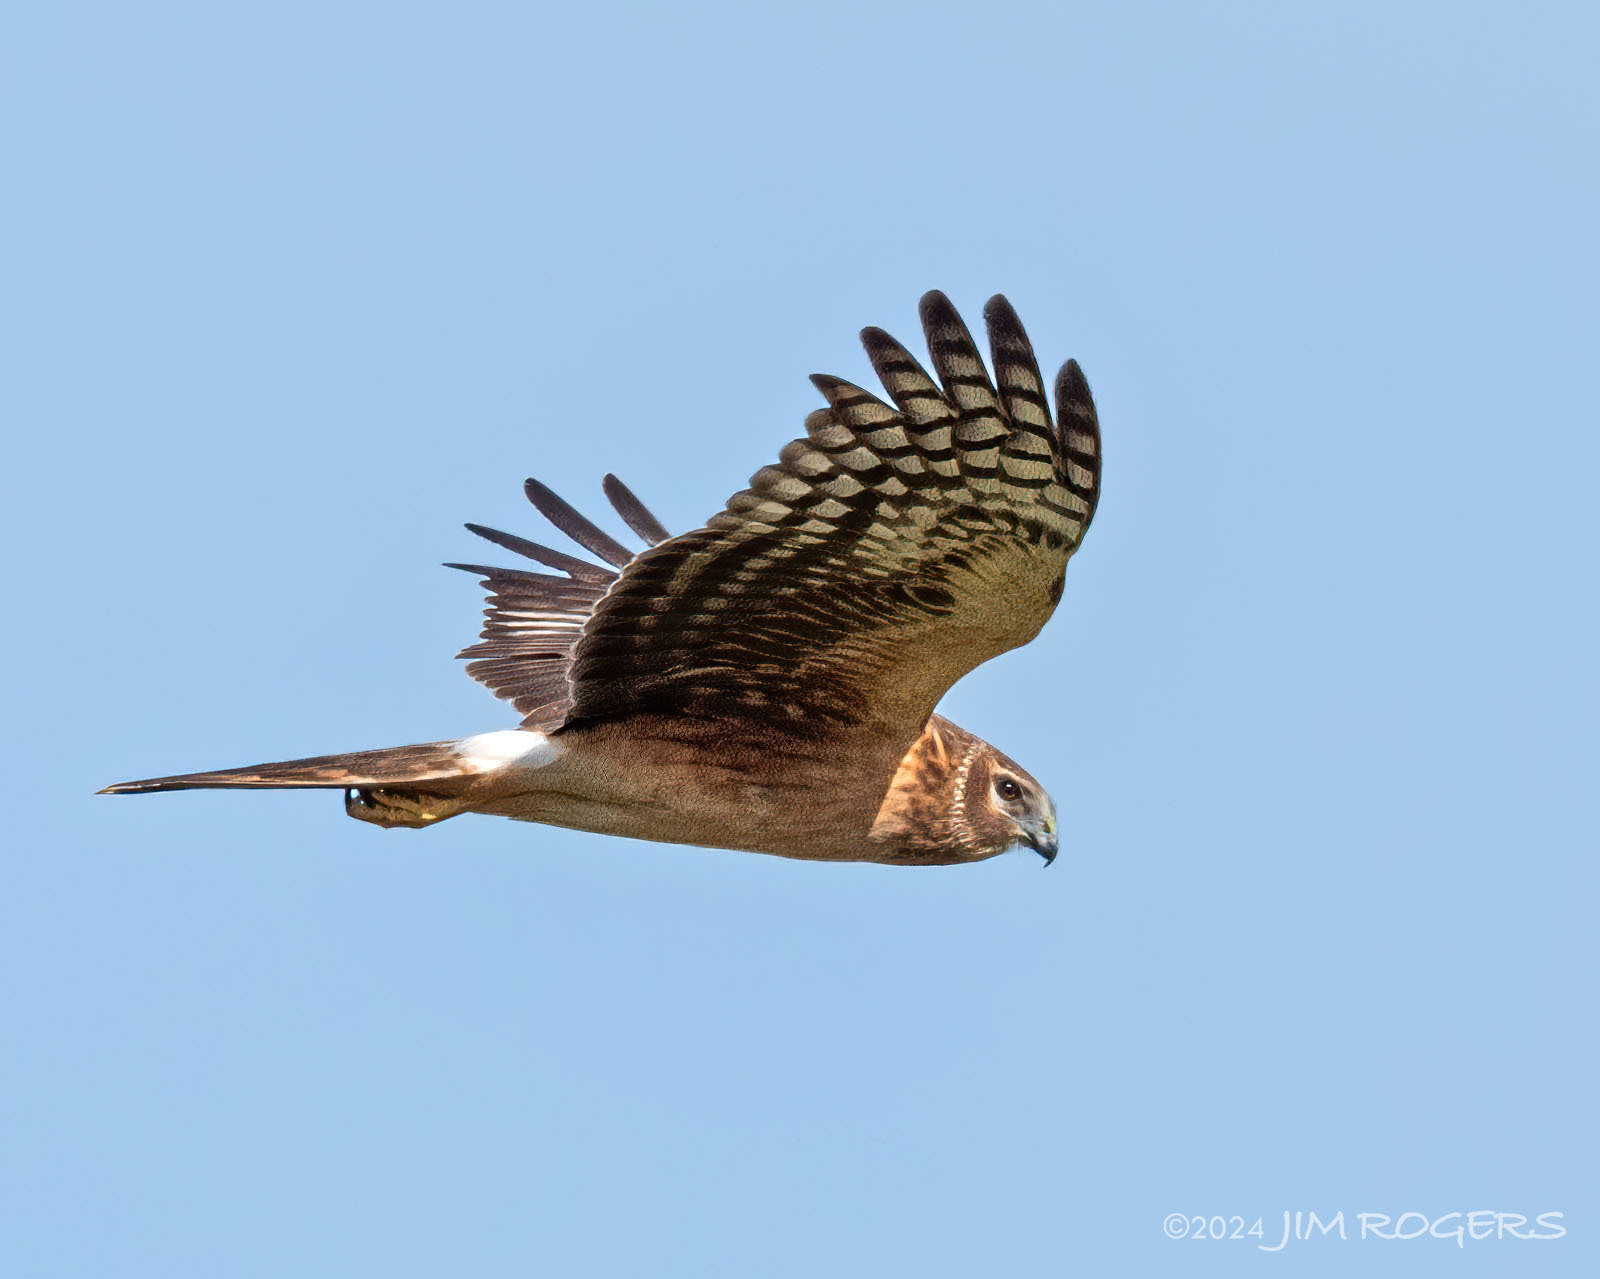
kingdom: Animalia
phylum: Chordata
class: Aves
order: Accipitriformes
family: Accipitridae
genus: Circus
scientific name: Circus cyaneus
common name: Hen harrier
